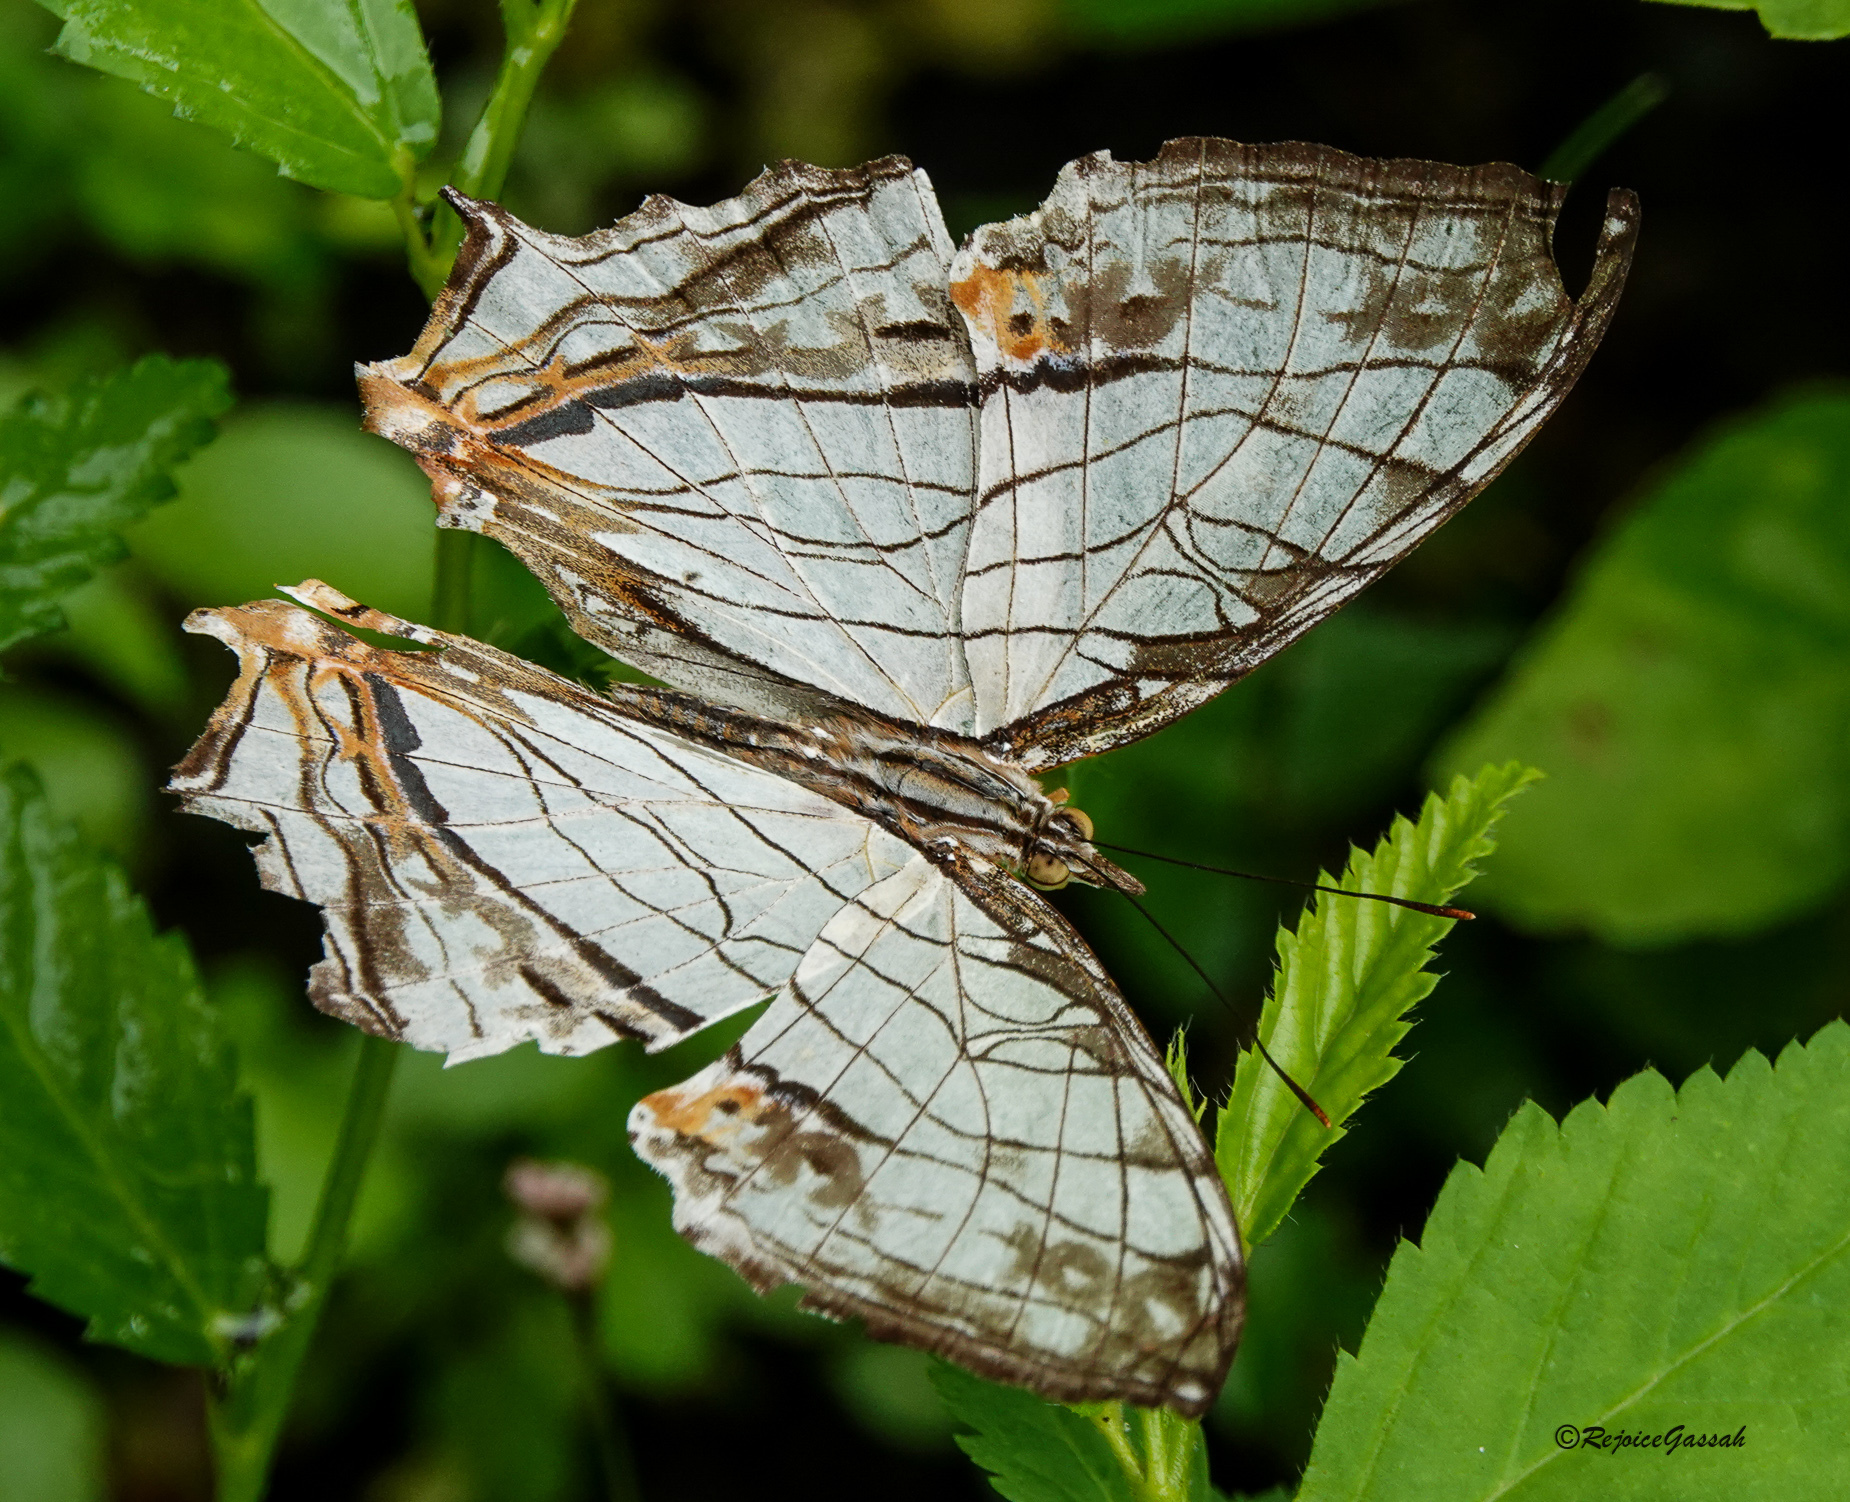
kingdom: Animalia
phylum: Arthropoda
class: Insecta
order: Lepidoptera
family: Nymphalidae
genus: Cyrestis
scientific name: Cyrestis thyodamas
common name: Common mapwing
